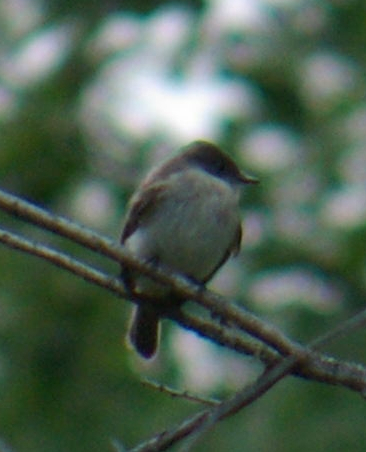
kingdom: Animalia
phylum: Chordata
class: Aves
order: Passeriformes
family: Tyrannidae
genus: Sayornis
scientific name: Sayornis phoebe
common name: Eastern phoebe
